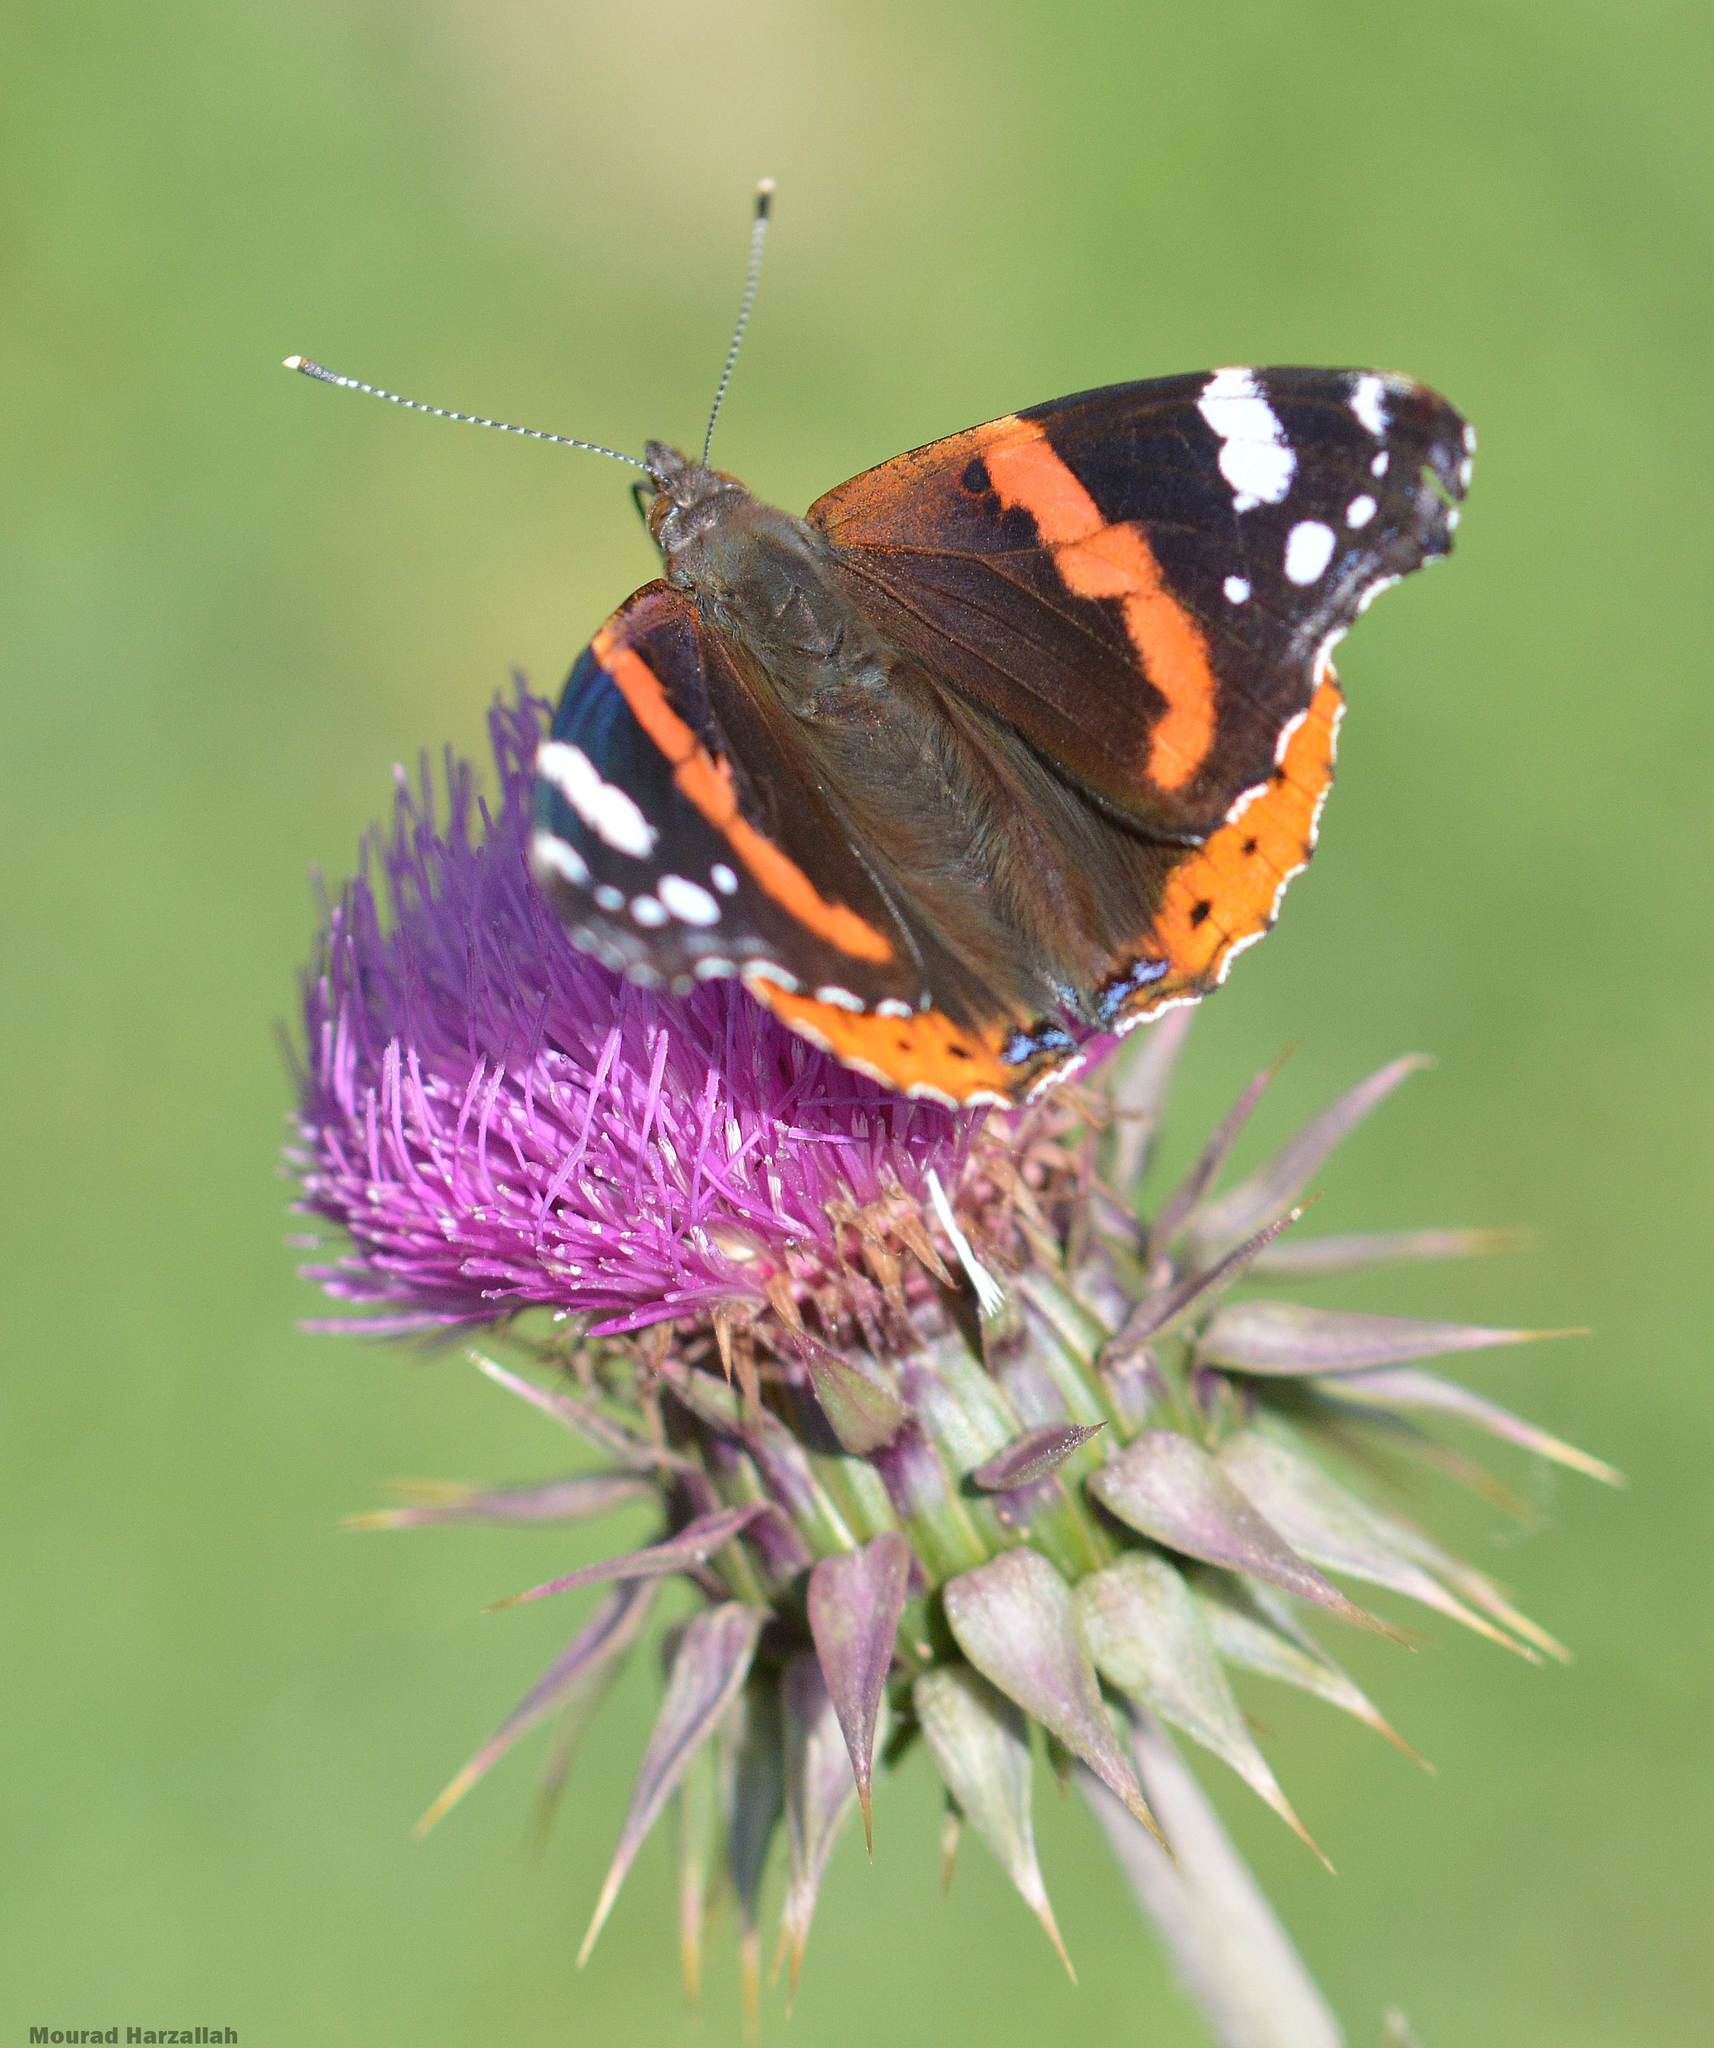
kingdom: Animalia
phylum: Arthropoda
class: Insecta
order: Lepidoptera
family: Nymphalidae
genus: Vanessa
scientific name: Vanessa atalanta
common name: Red admiral
